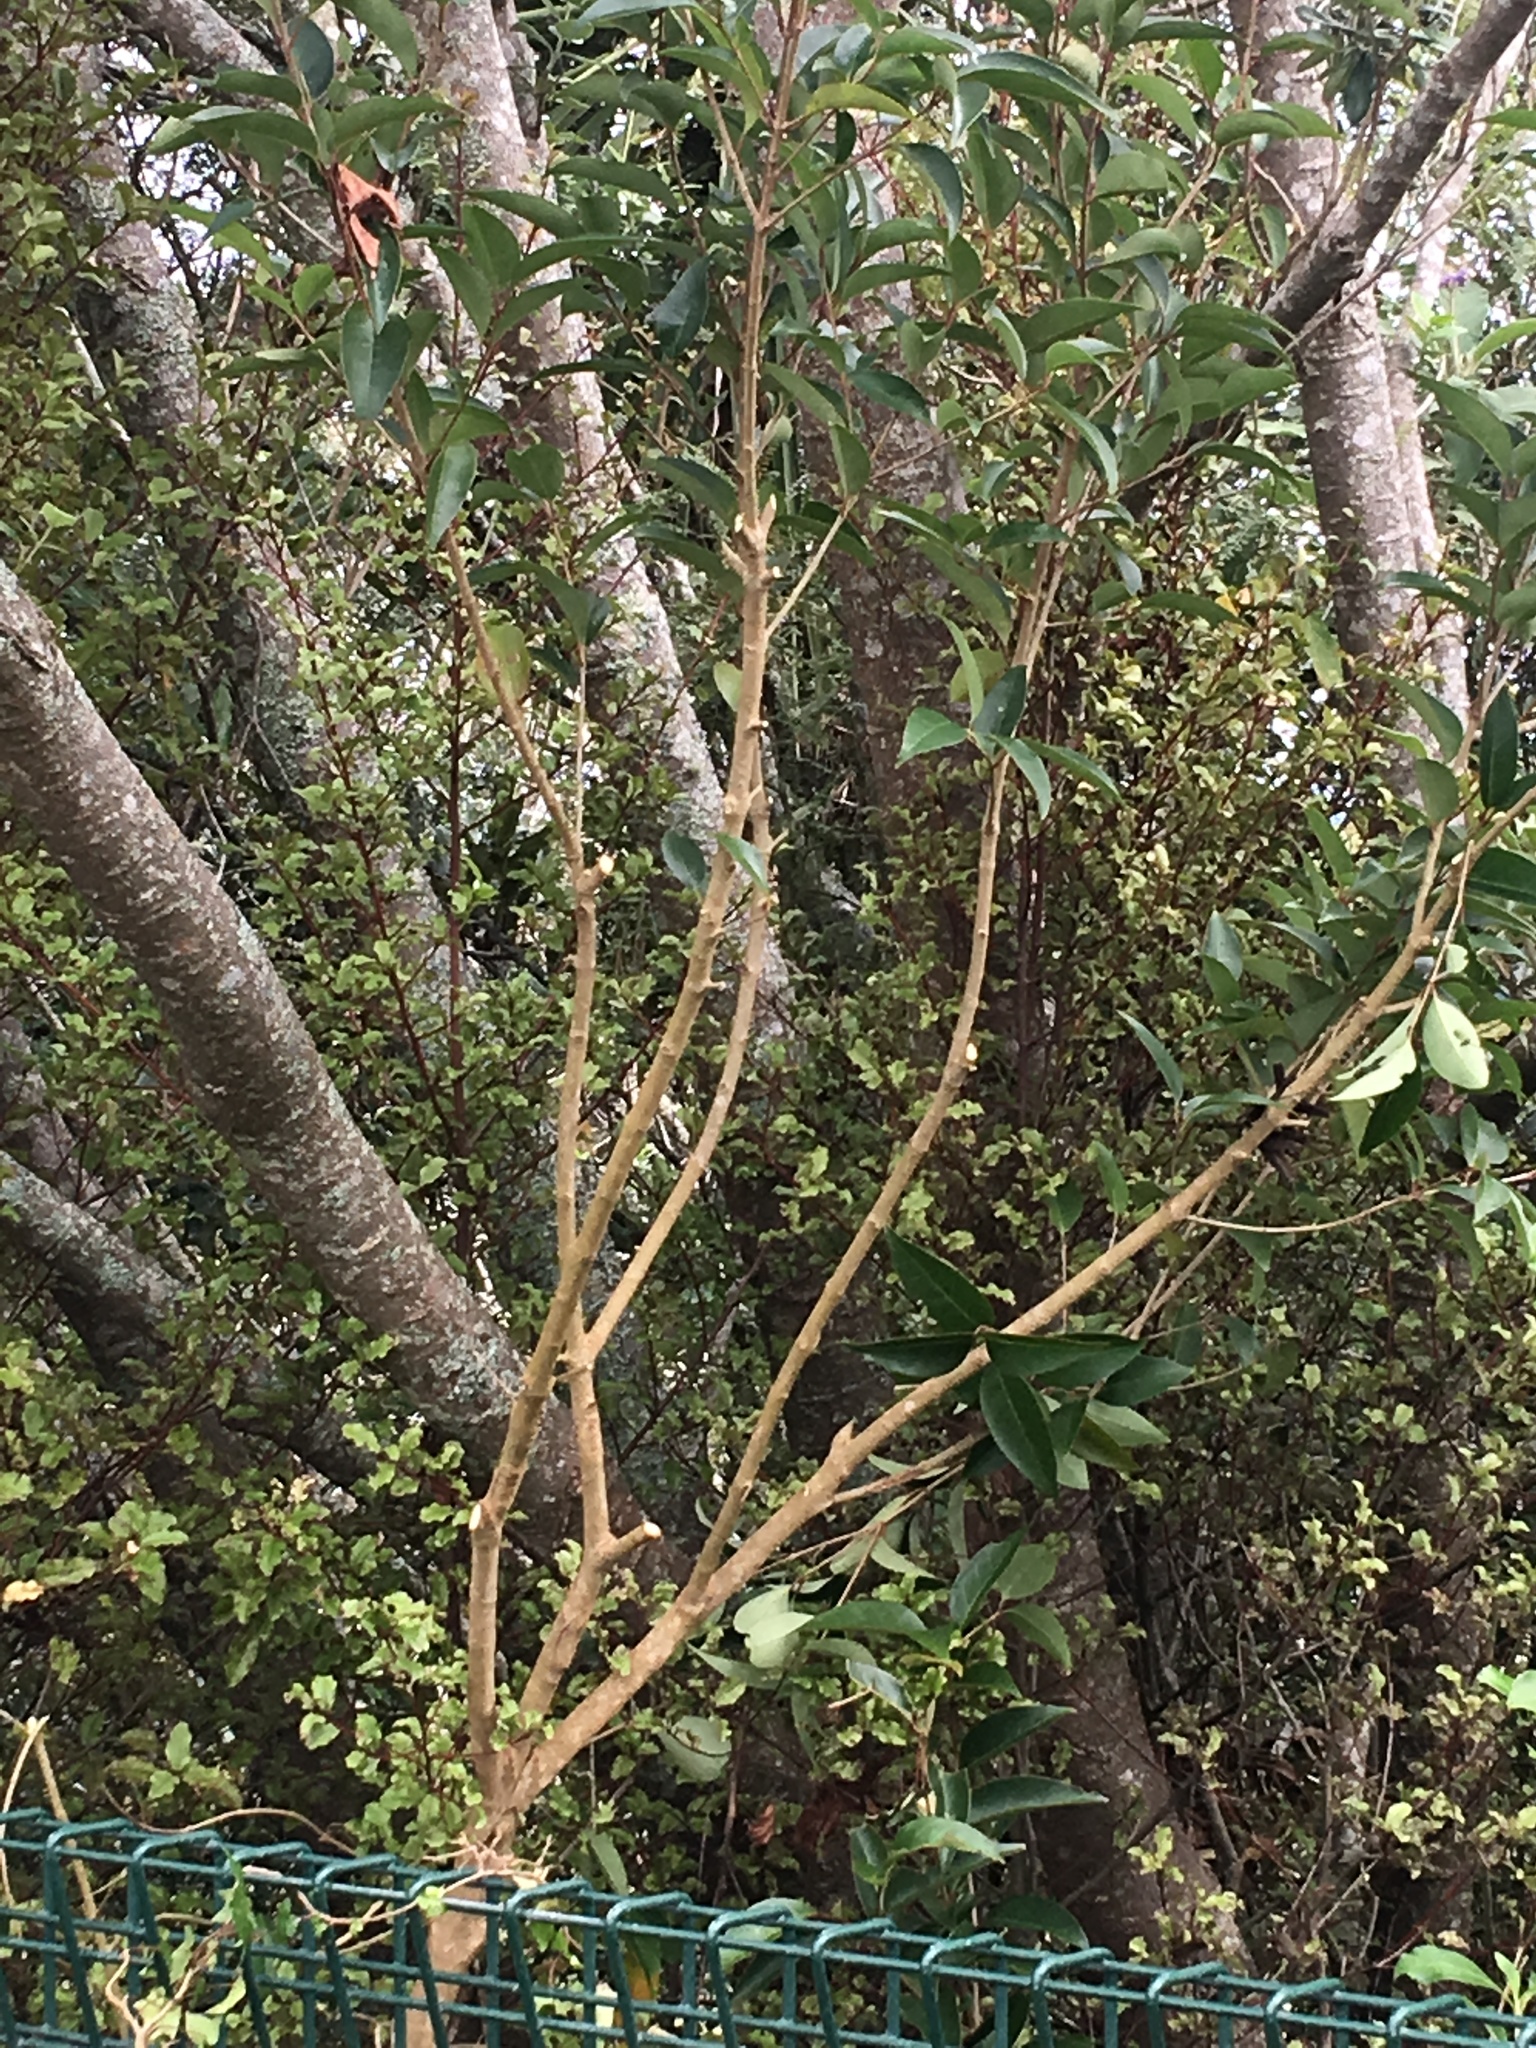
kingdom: Plantae
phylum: Tracheophyta
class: Magnoliopsida
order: Lamiales
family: Oleaceae
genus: Ligustrum
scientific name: Ligustrum lucidum
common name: Glossy privet
